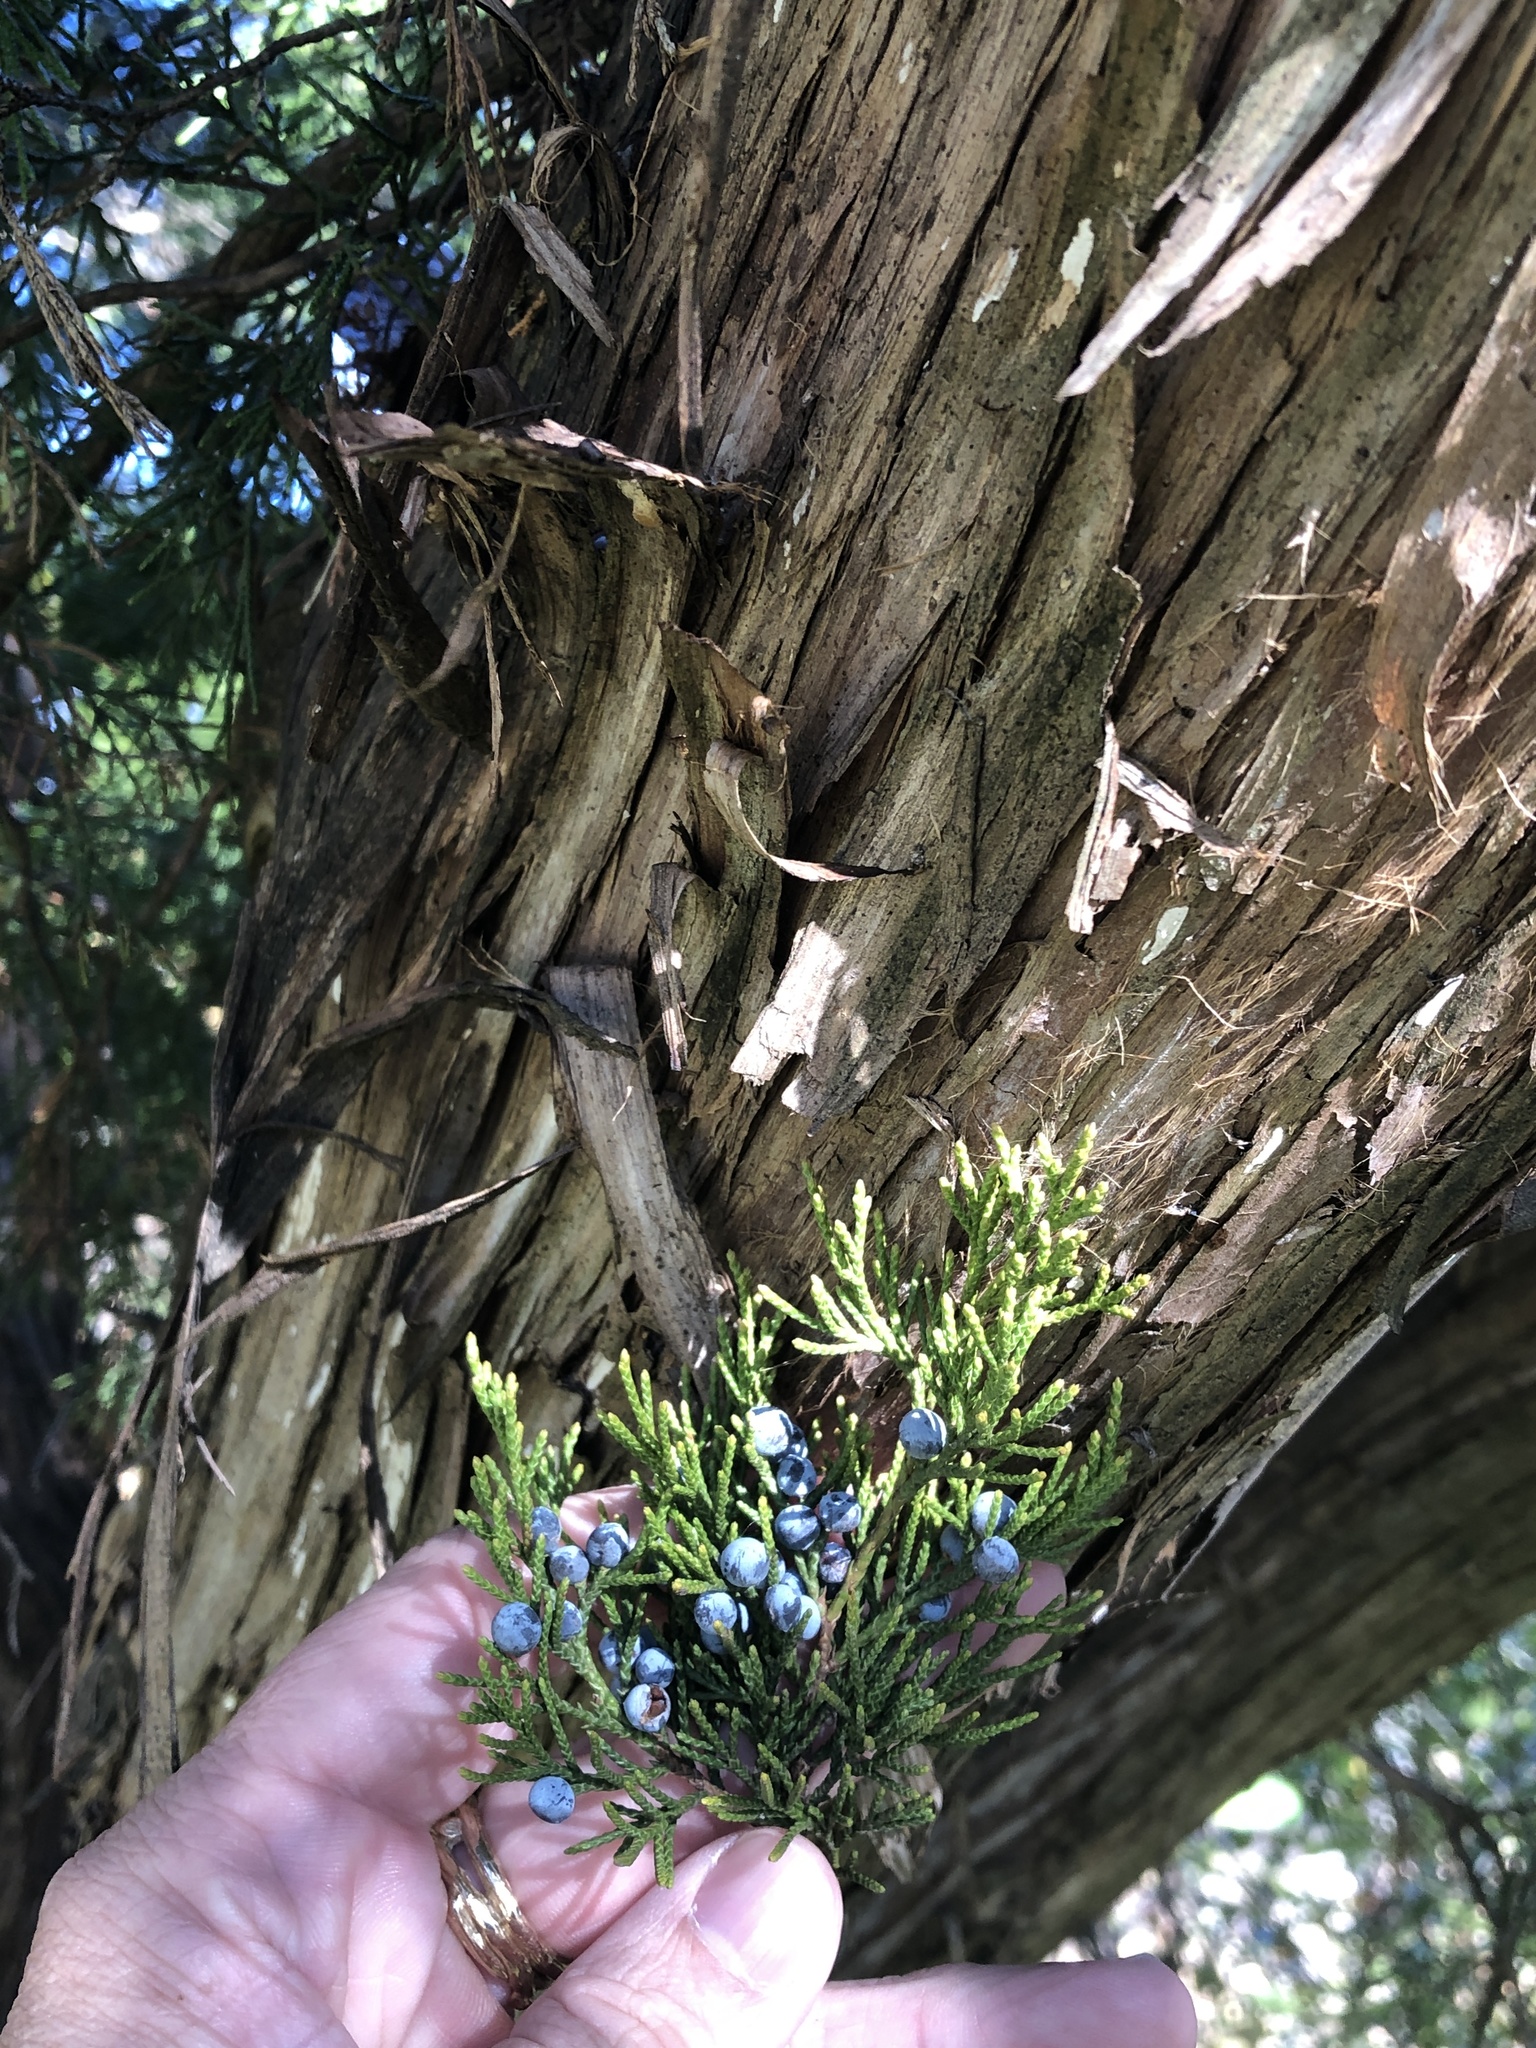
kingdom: Plantae
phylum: Tracheophyta
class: Pinopsida
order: Pinales
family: Cupressaceae
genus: Juniperus
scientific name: Juniperus virginiana
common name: Red juniper
